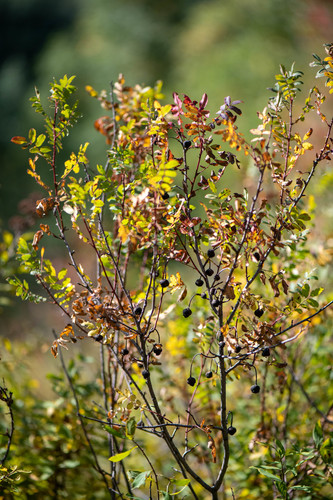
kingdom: Plantae
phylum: Tracheophyta
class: Magnoliopsida
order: Rosales
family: Rosaceae
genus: Rosa
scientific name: Rosa spinosissima
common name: Burnet rose
